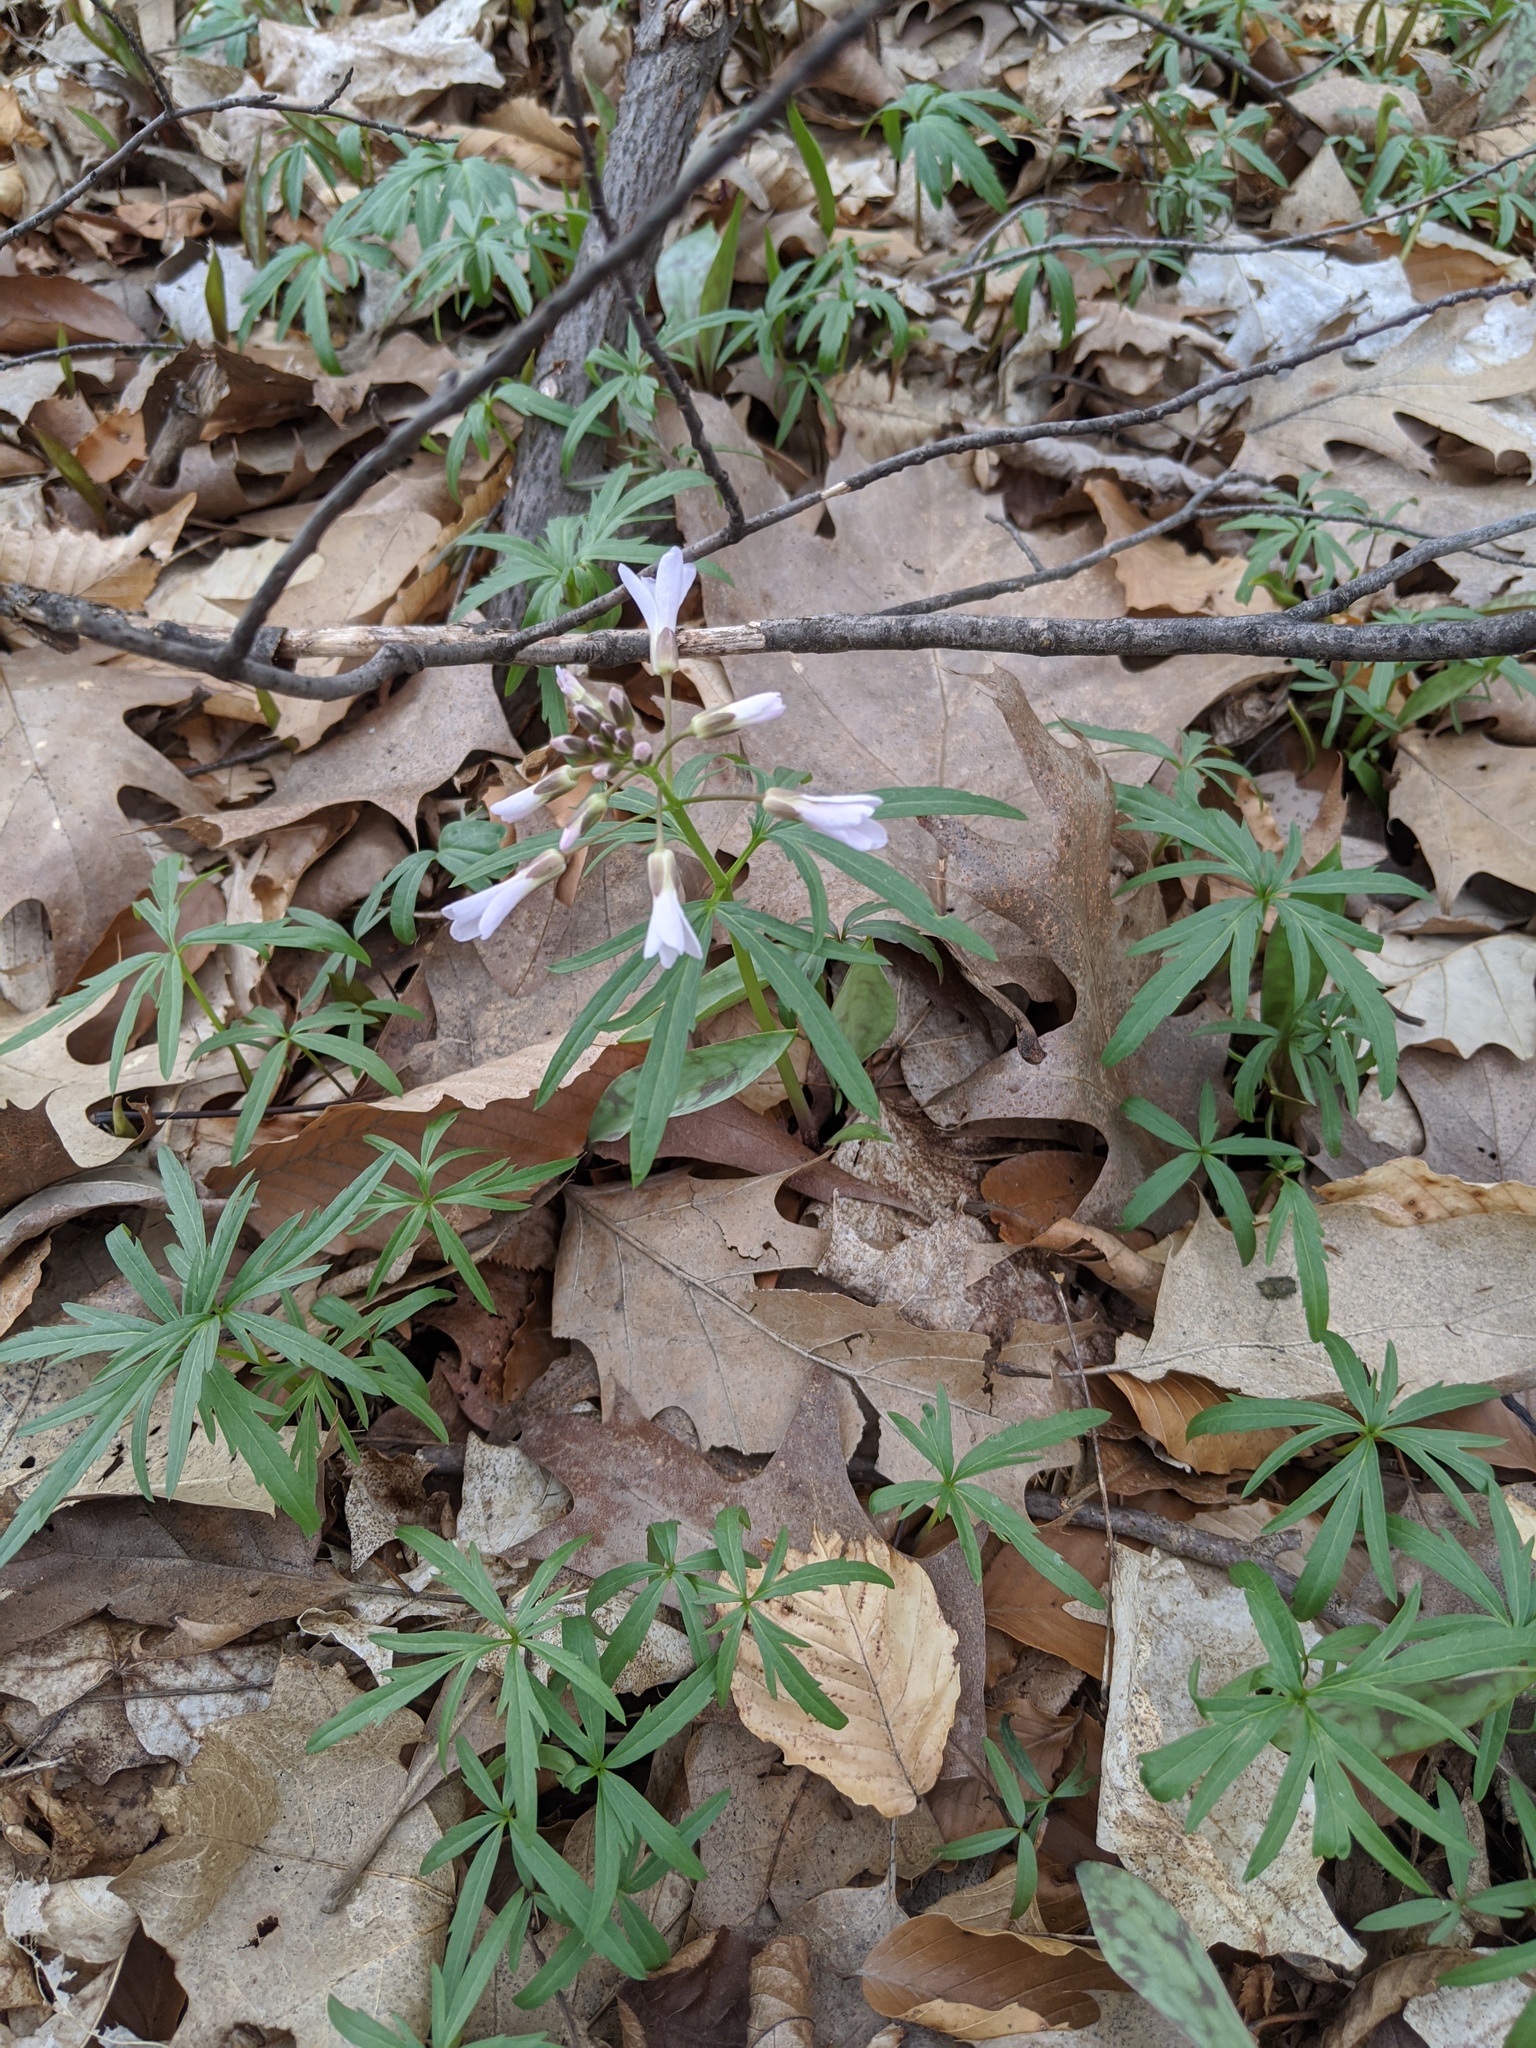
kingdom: Plantae
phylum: Tracheophyta
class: Magnoliopsida
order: Brassicales
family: Brassicaceae
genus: Cardamine
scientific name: Cardamine concatenata
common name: Cut-leaf toothcup
